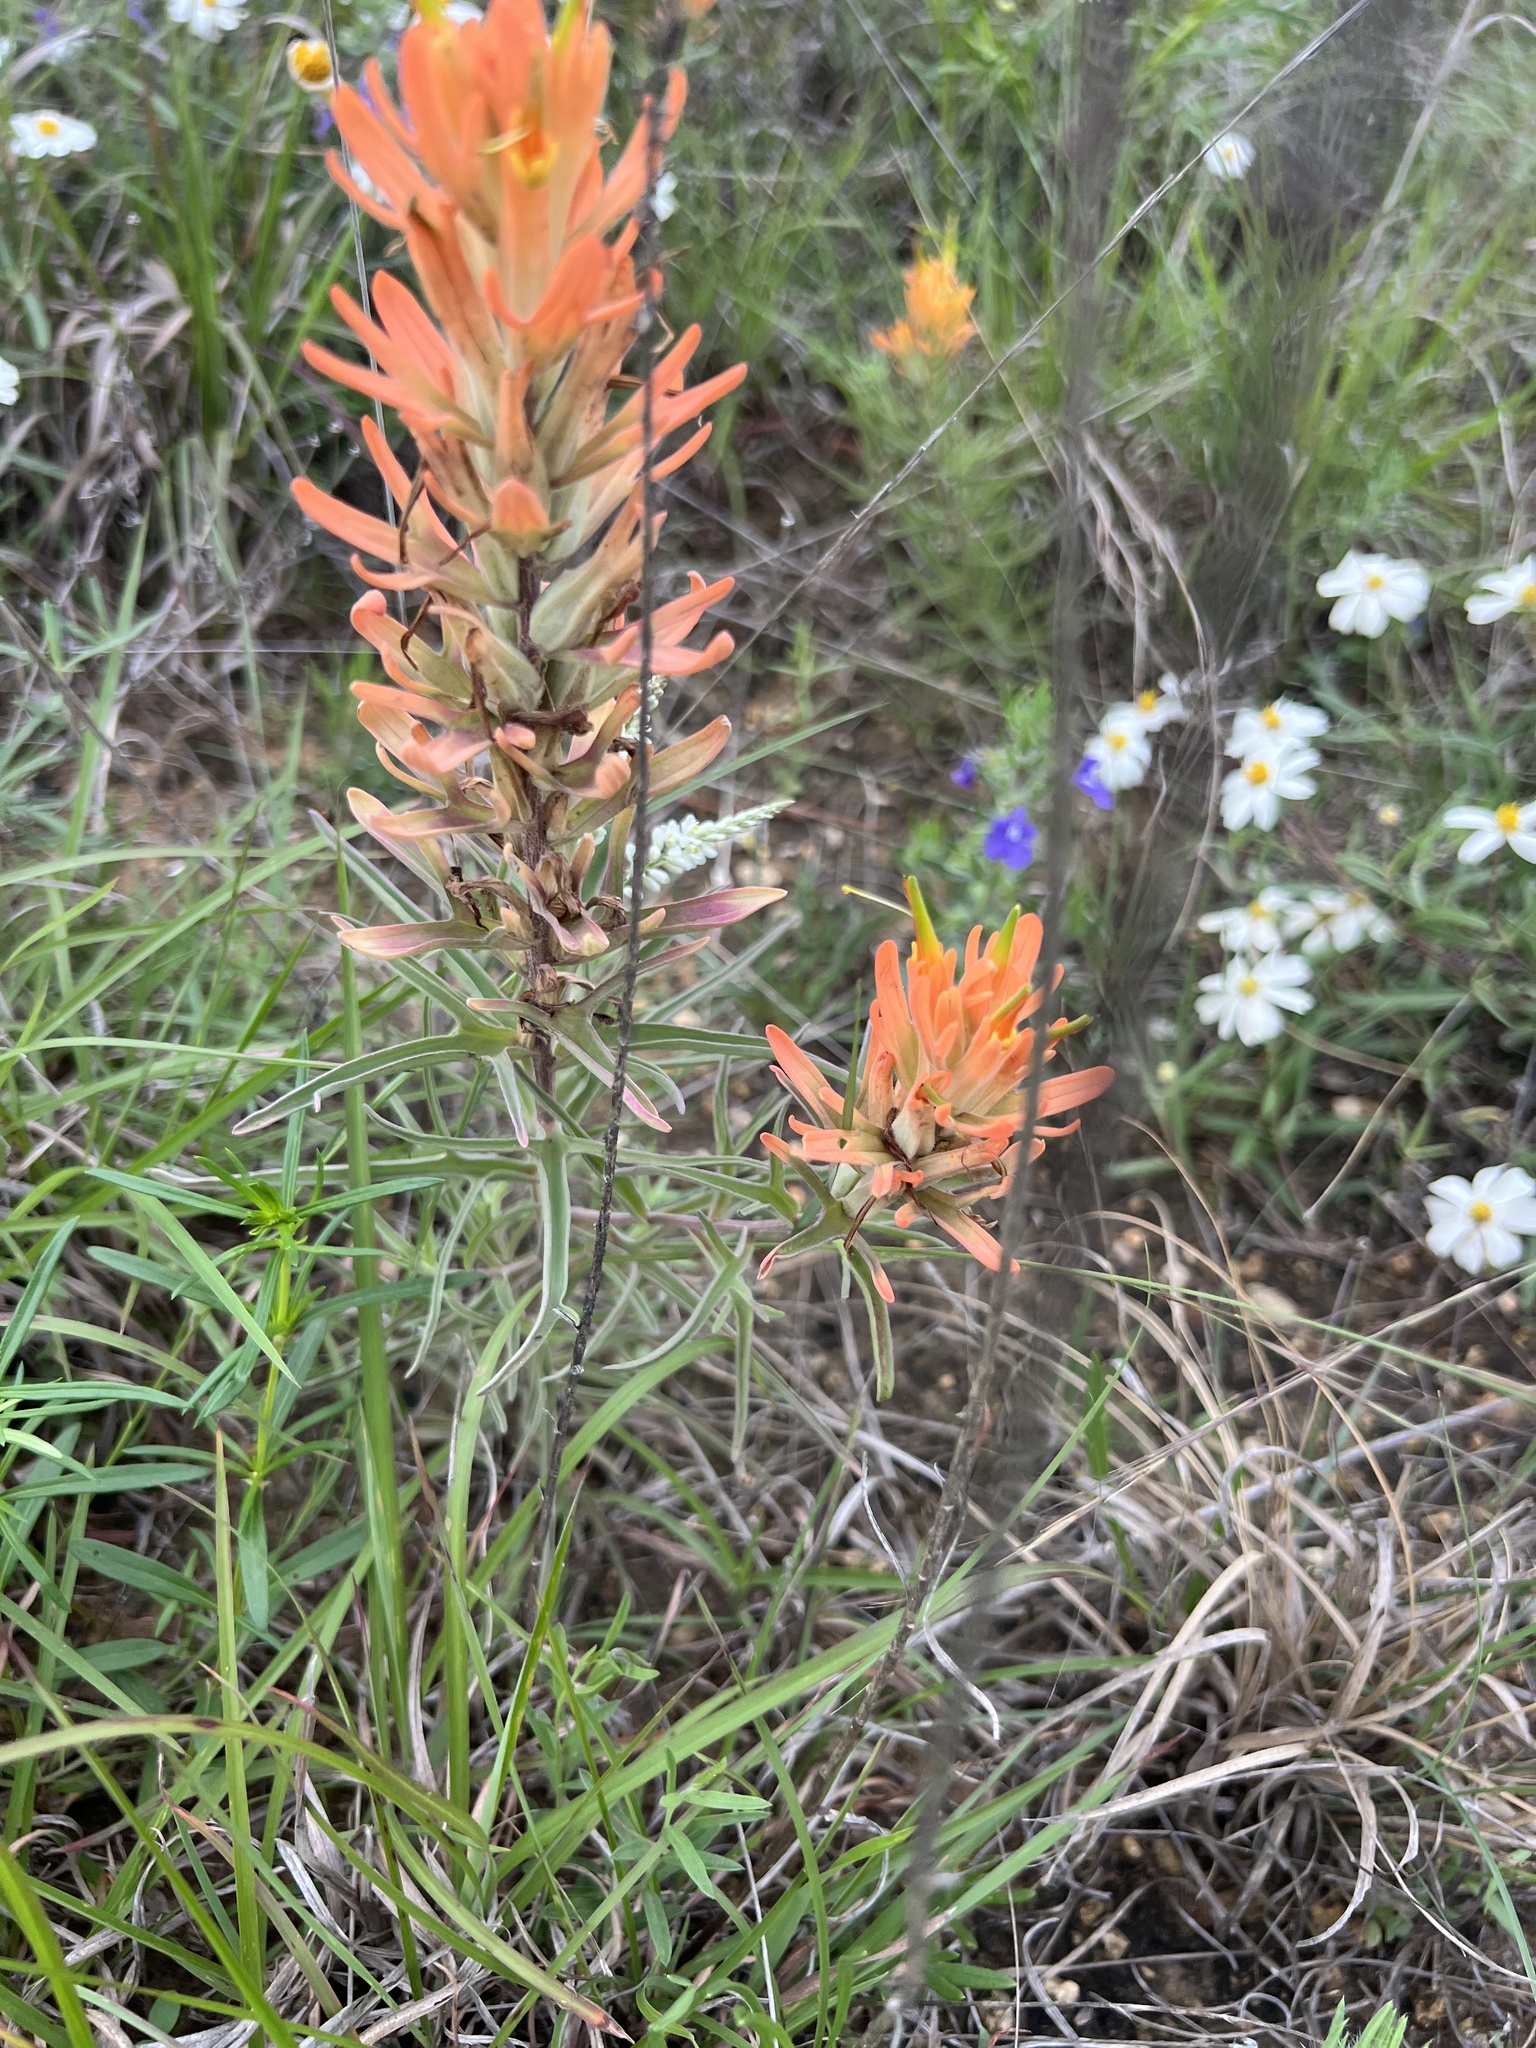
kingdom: Plantae
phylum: Tracheophyta
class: Magnoliopsida
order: Lamiales
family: Orobanchaceae
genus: Castilleja
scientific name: Castilleja lindheimeri
